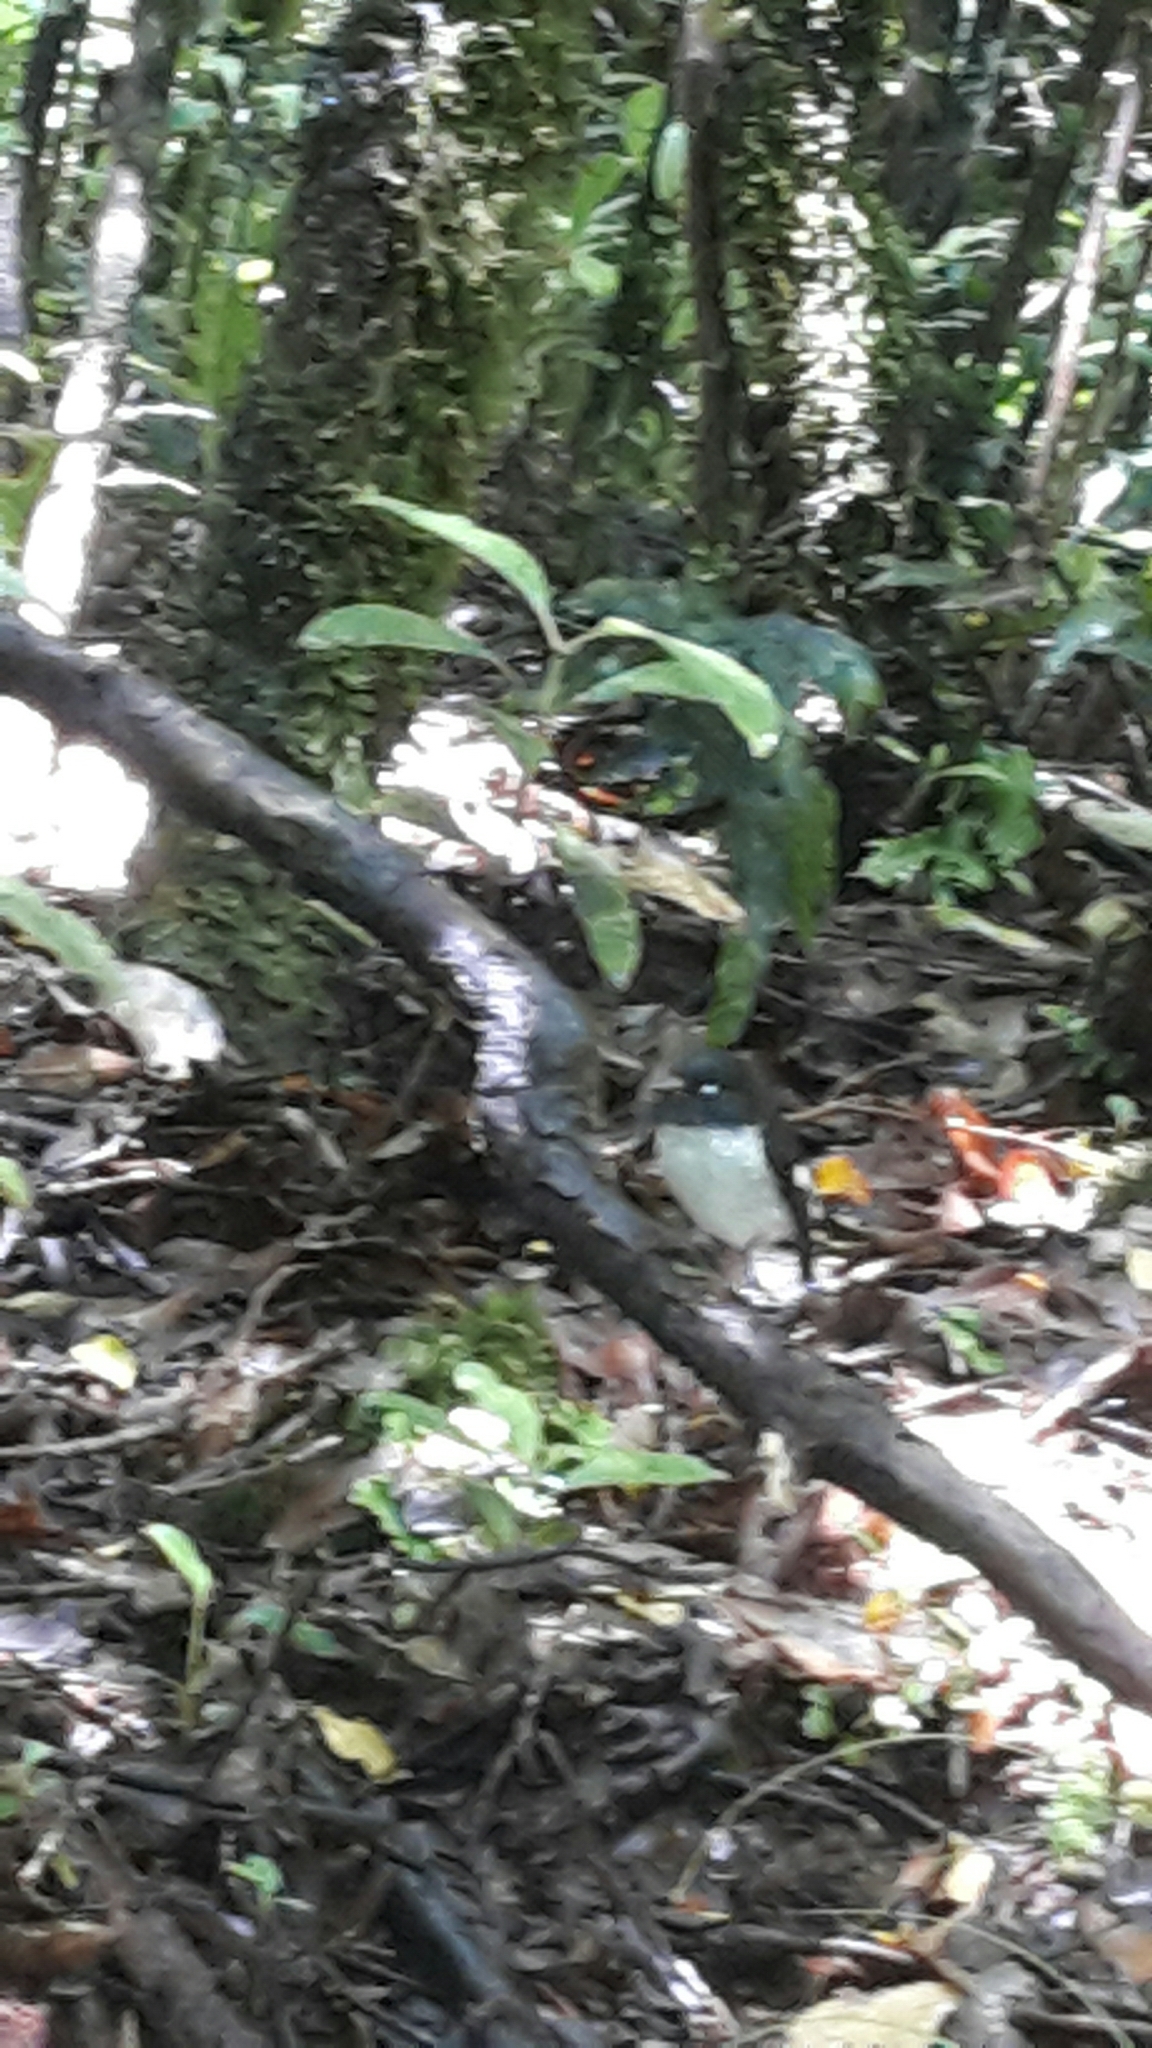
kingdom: Animalia
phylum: Chordata
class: Aves
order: Passeriformes
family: Petroicidae
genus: Petroica
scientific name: Petroica macrocephala
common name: Tomtit
